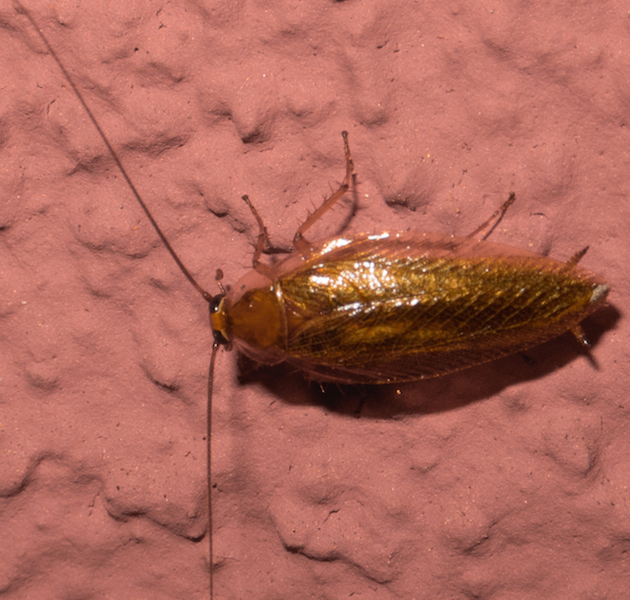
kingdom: Animalia
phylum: Arthropoda
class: Insecta
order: Blattodea
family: Ectobiidae
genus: Ectobius
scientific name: Ectobius vittiventris
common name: Garden cockroach
